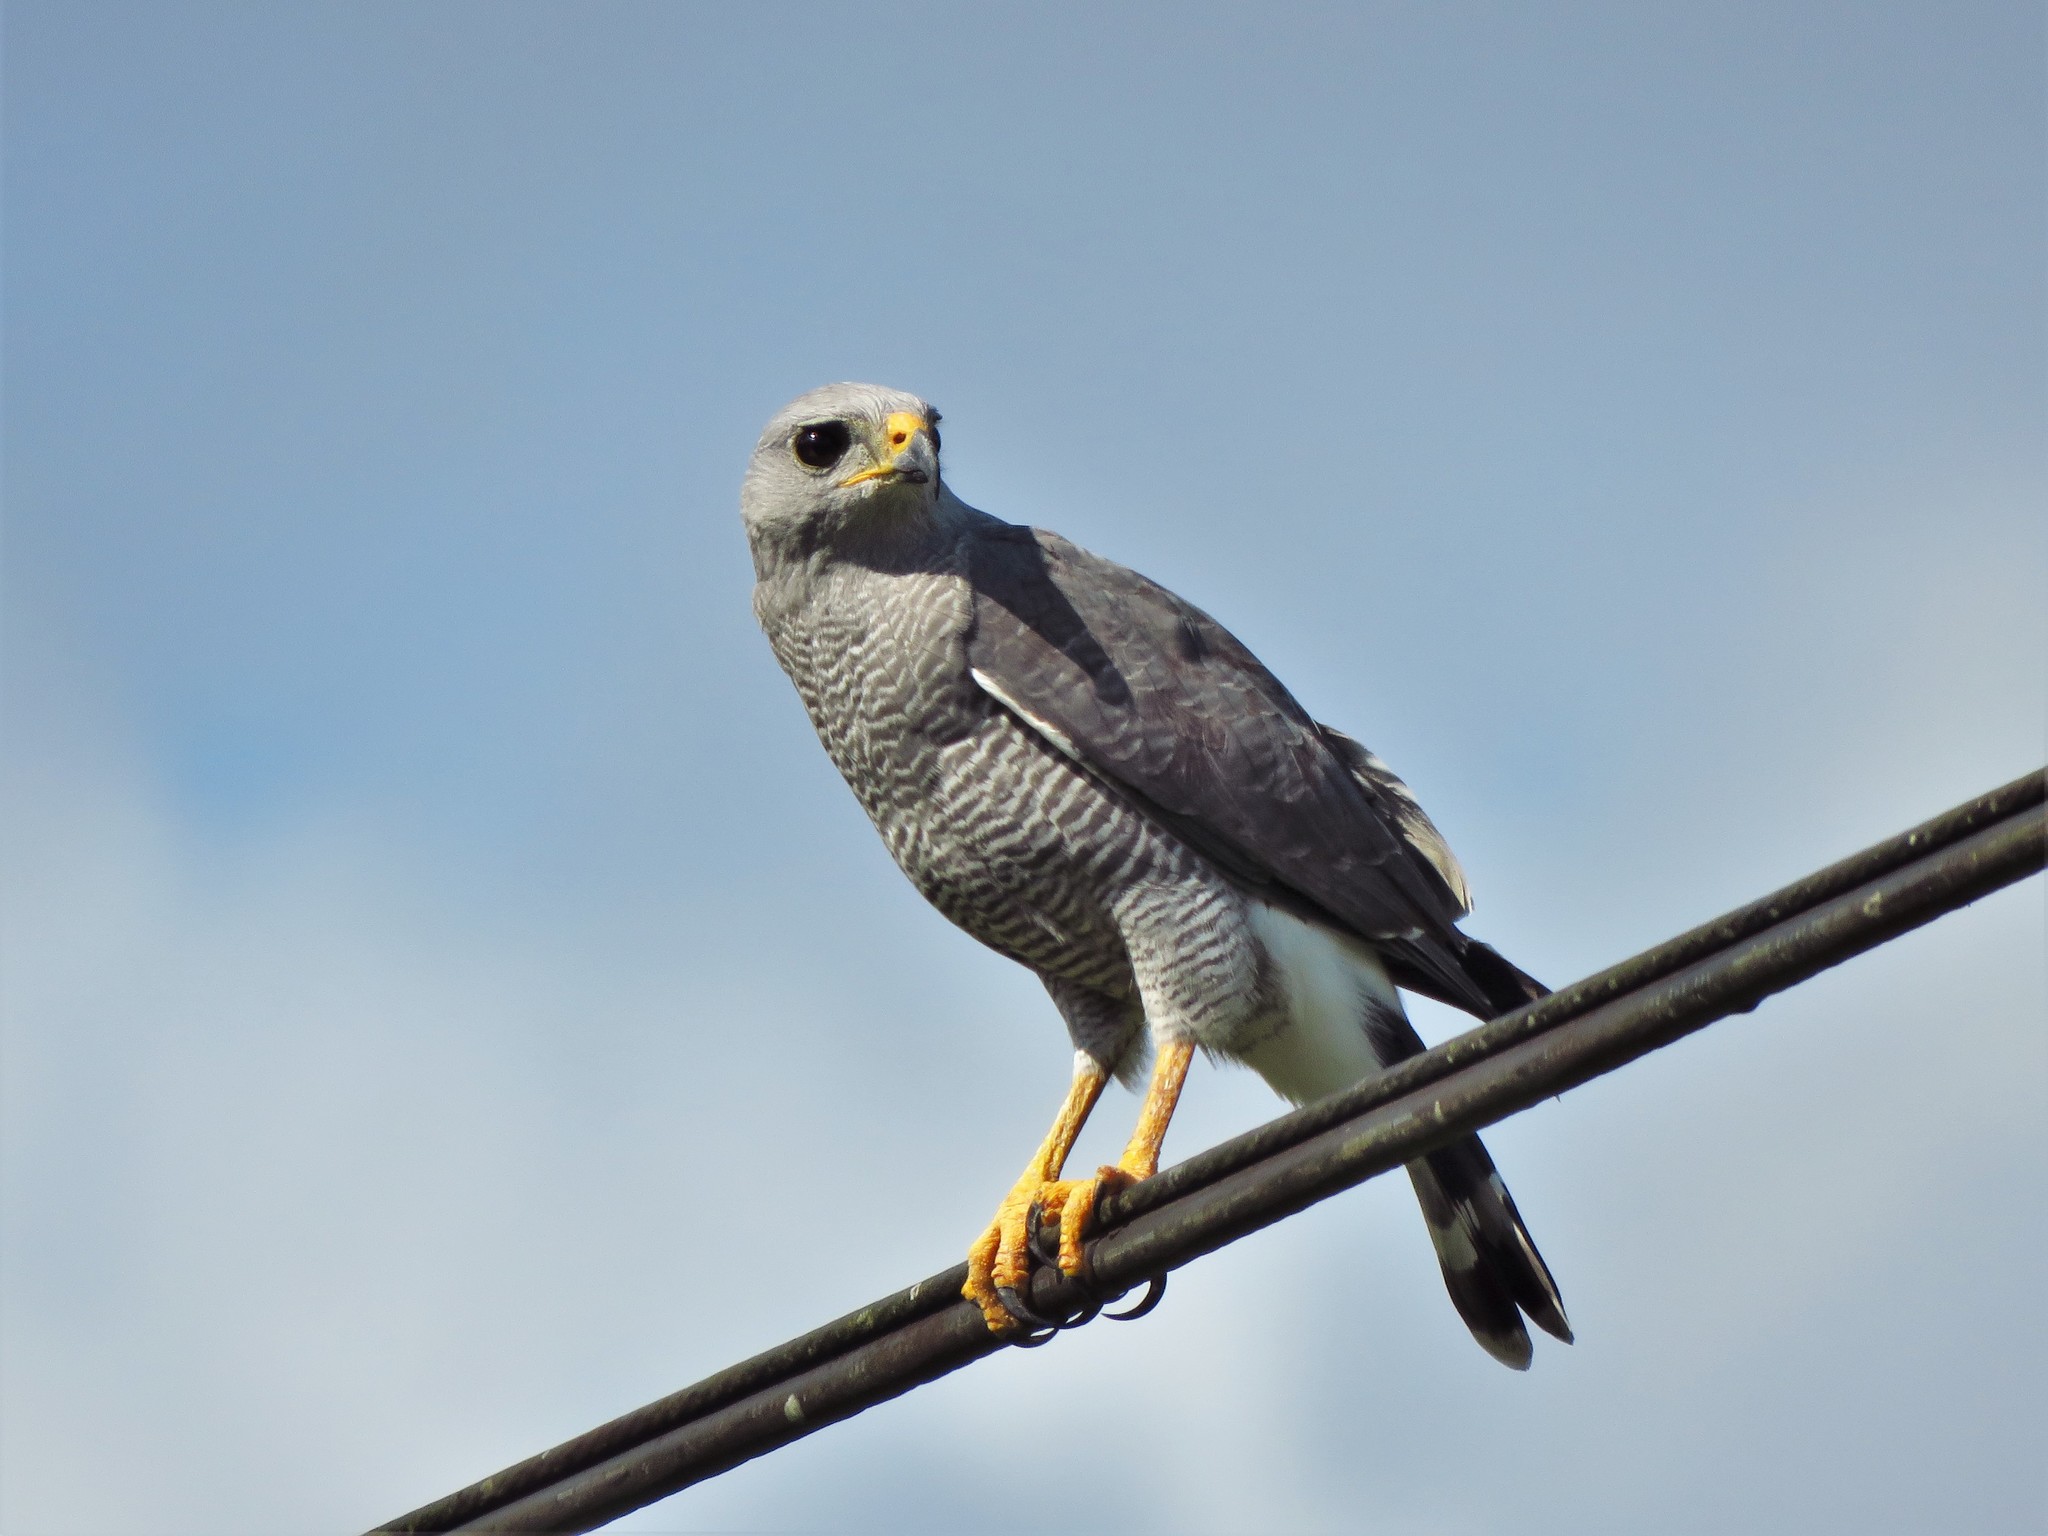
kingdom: Animalia
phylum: Chordata
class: Aves
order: Accipitriformes
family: Accipitridae
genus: Buteo
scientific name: Buteo nitidus
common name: Grey-lined hawk
